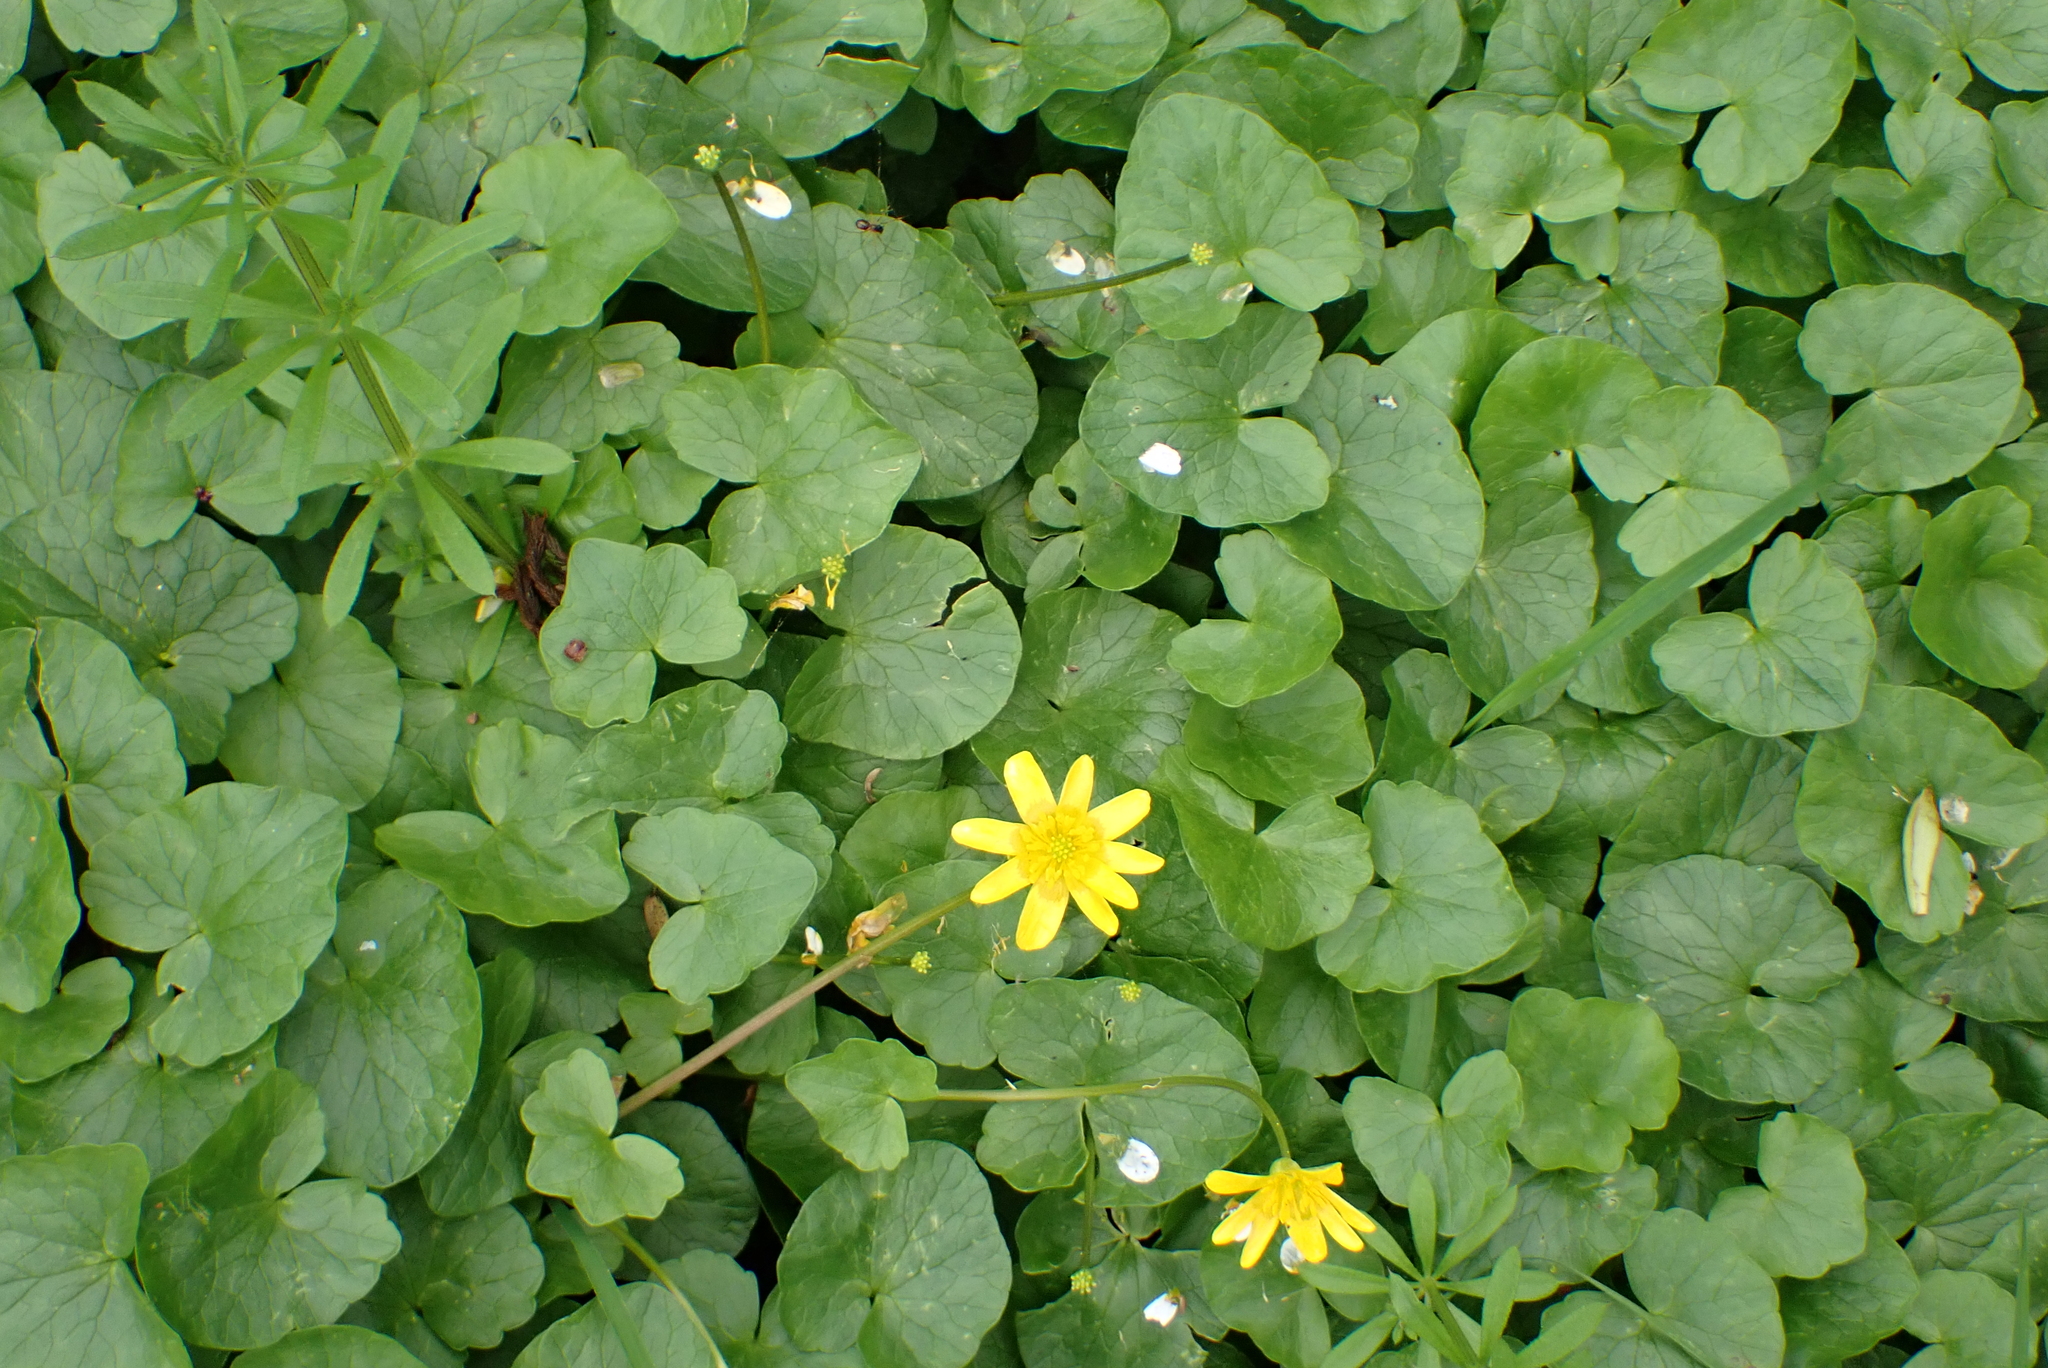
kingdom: Plantae
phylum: Tracheophyta
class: Magnoliopsida
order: Ranunculales
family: Ranunculaceae
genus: Ficaria
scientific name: Ficaria verna
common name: Lesser celandine
